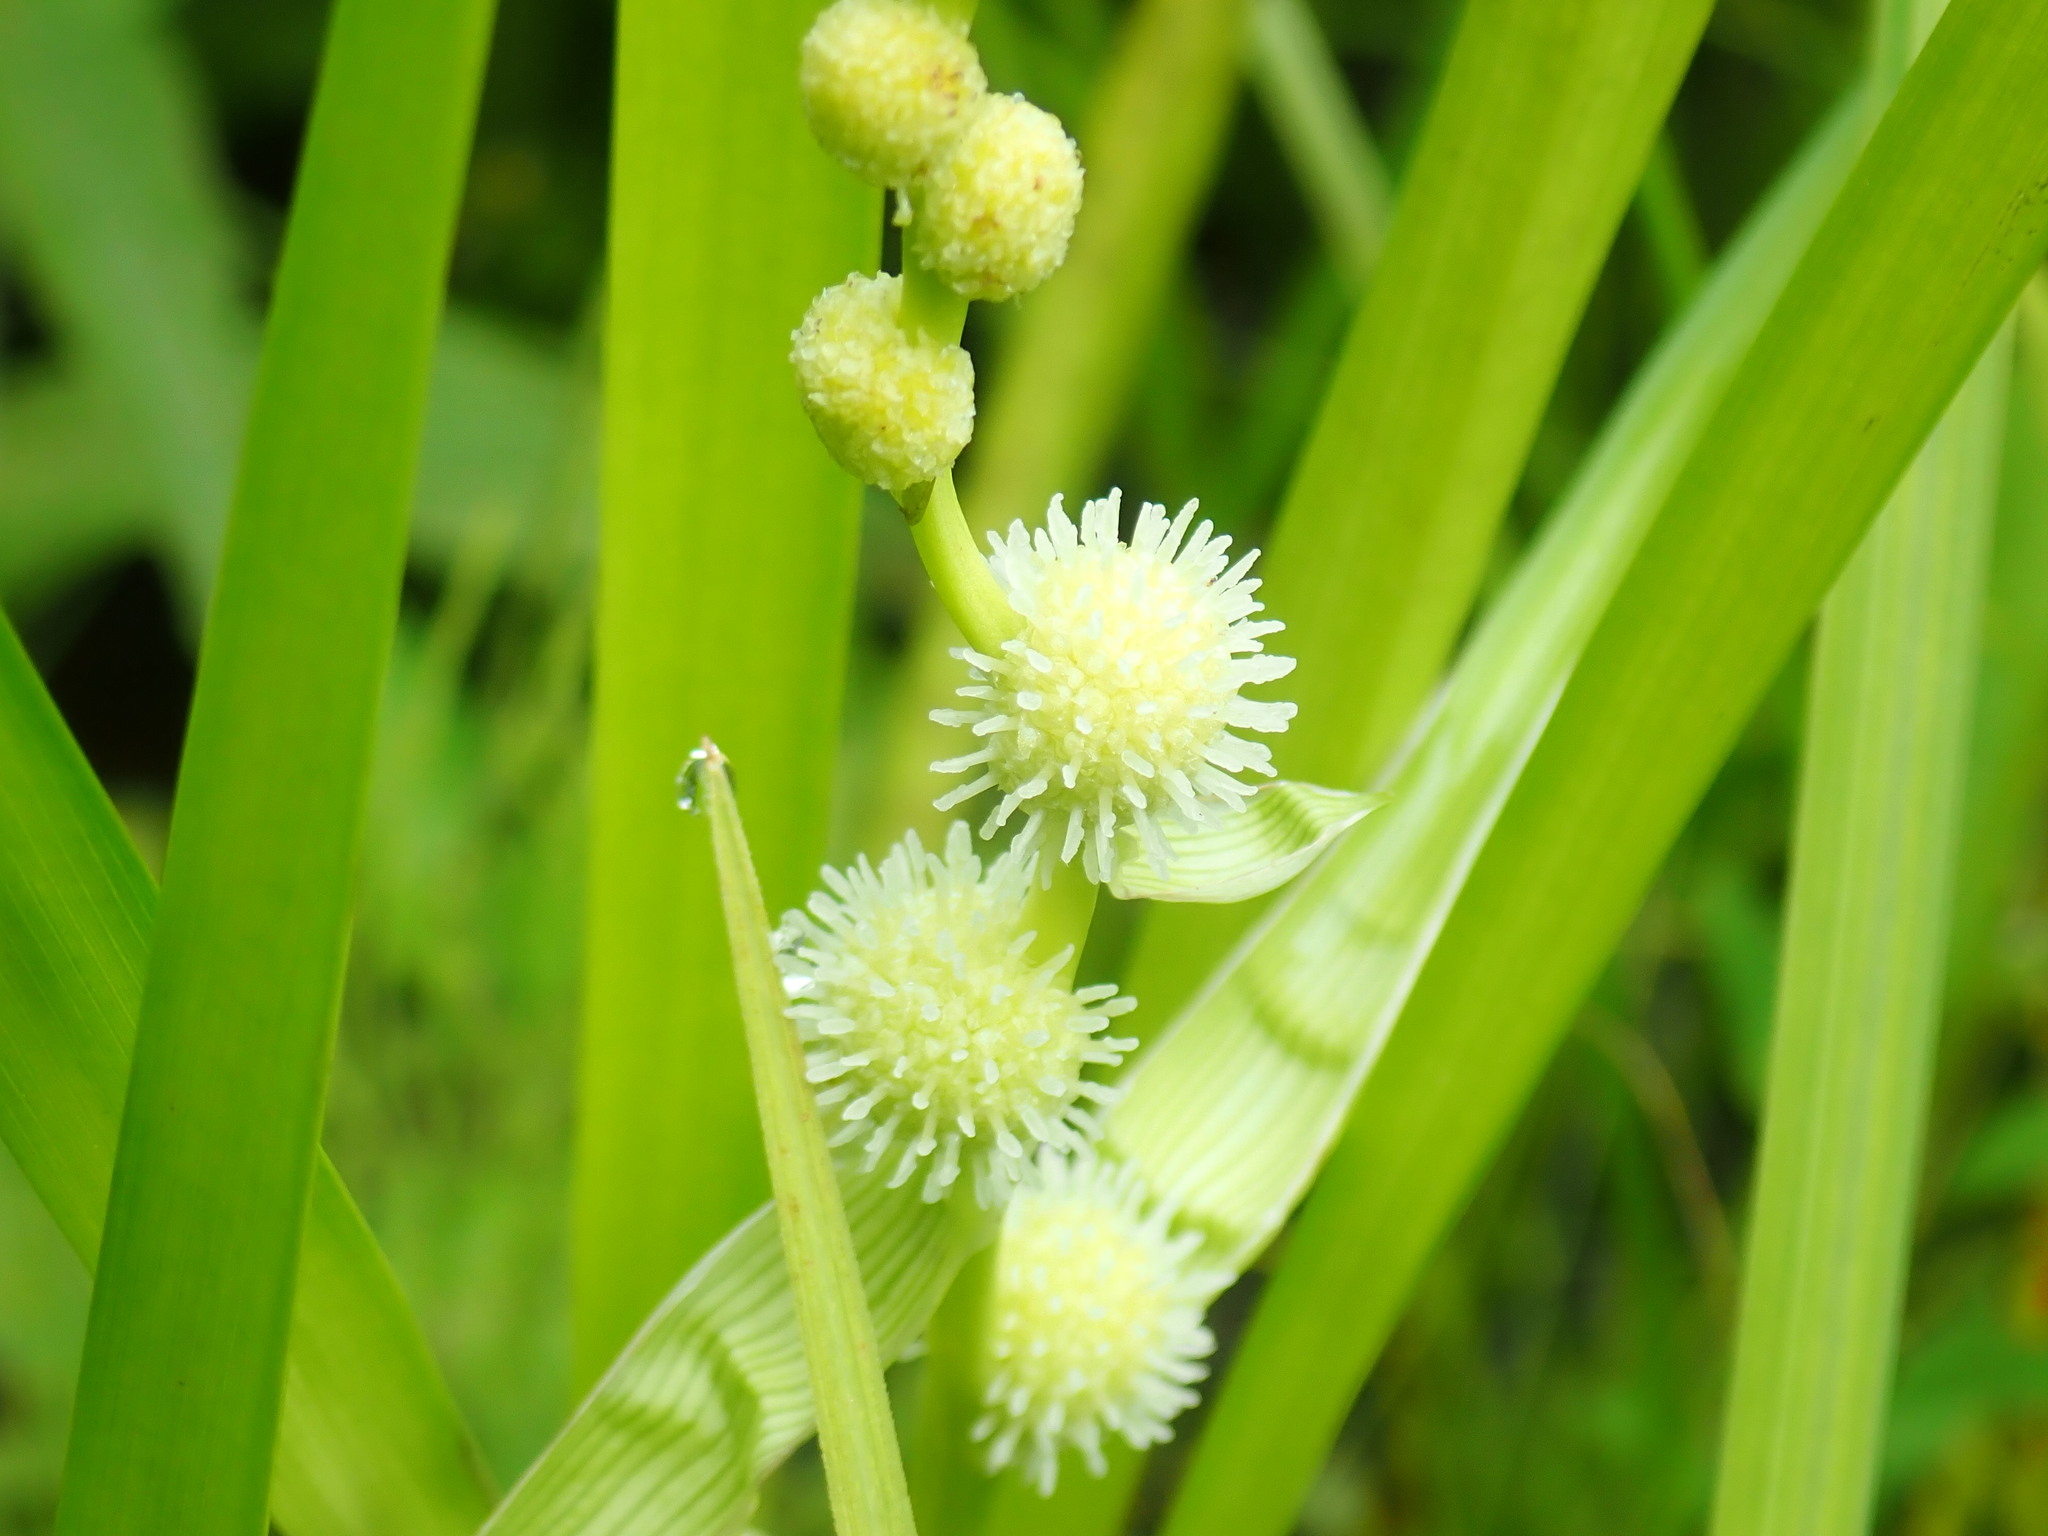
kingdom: Plantae
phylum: Tracheophyta
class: Liliopsida
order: Poales
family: Typhaceae
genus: Sparganium
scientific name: Sparganium
